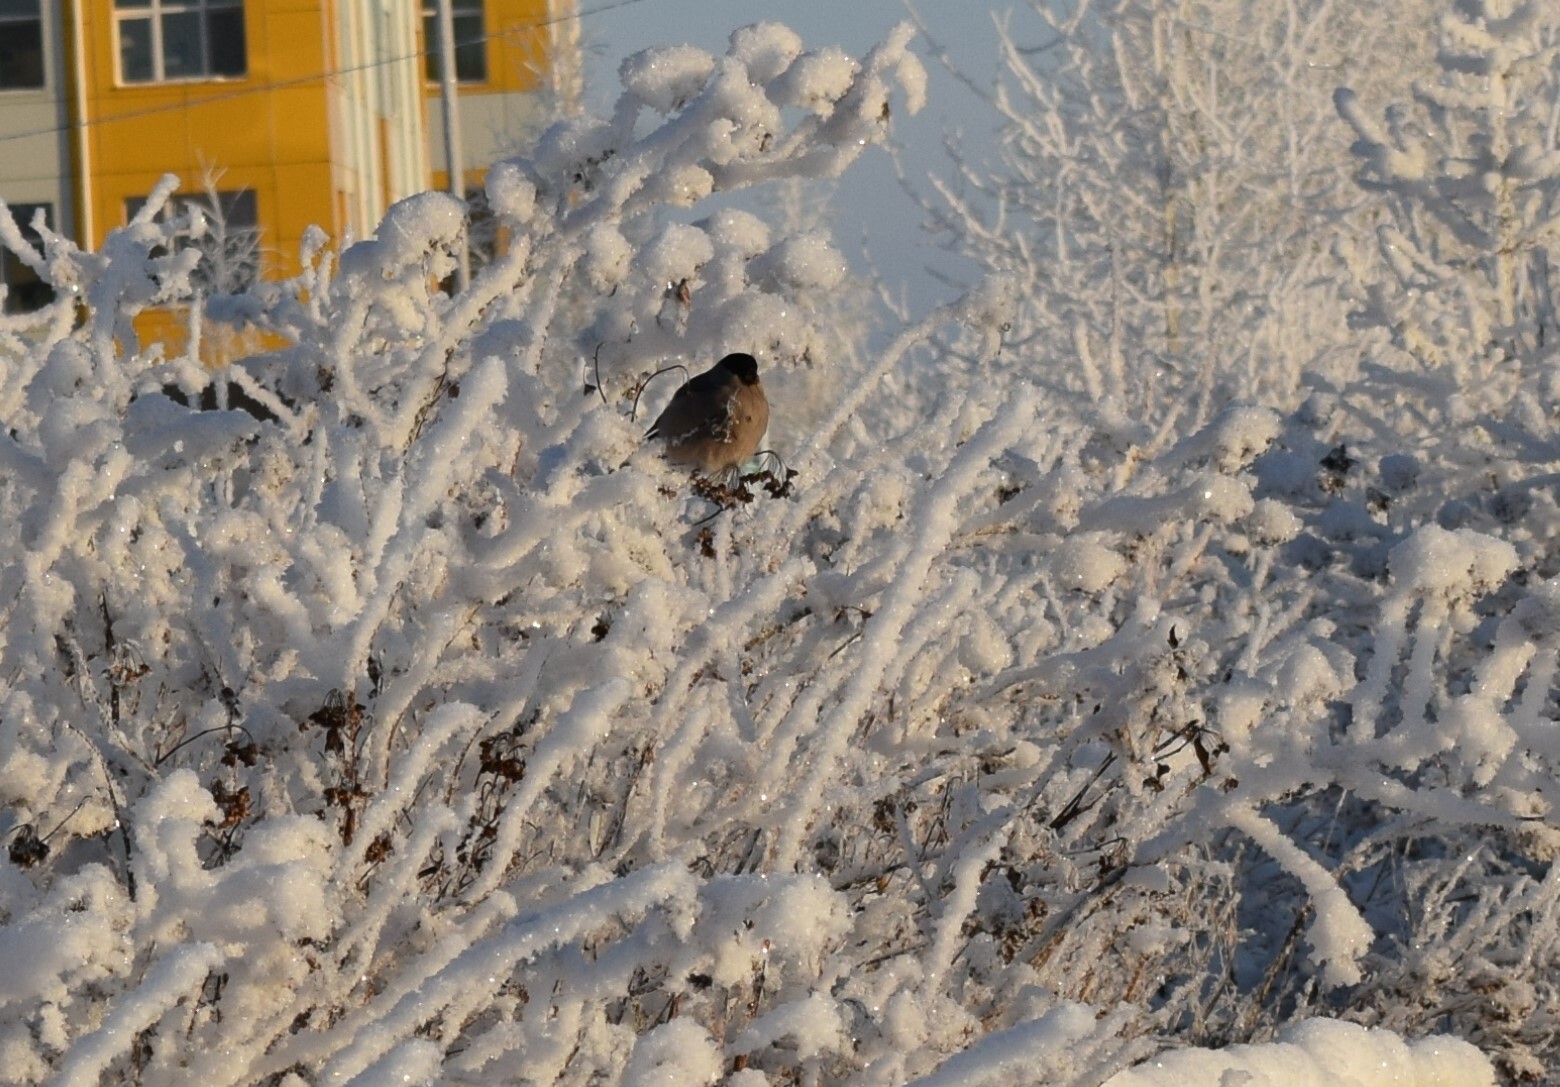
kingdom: Animalia
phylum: Chordata
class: Aves
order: Passeriformes
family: Fringillidae
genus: Pyrrhula
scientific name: Pyrrhula pyrrhula
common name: Eurasian bullfinch
